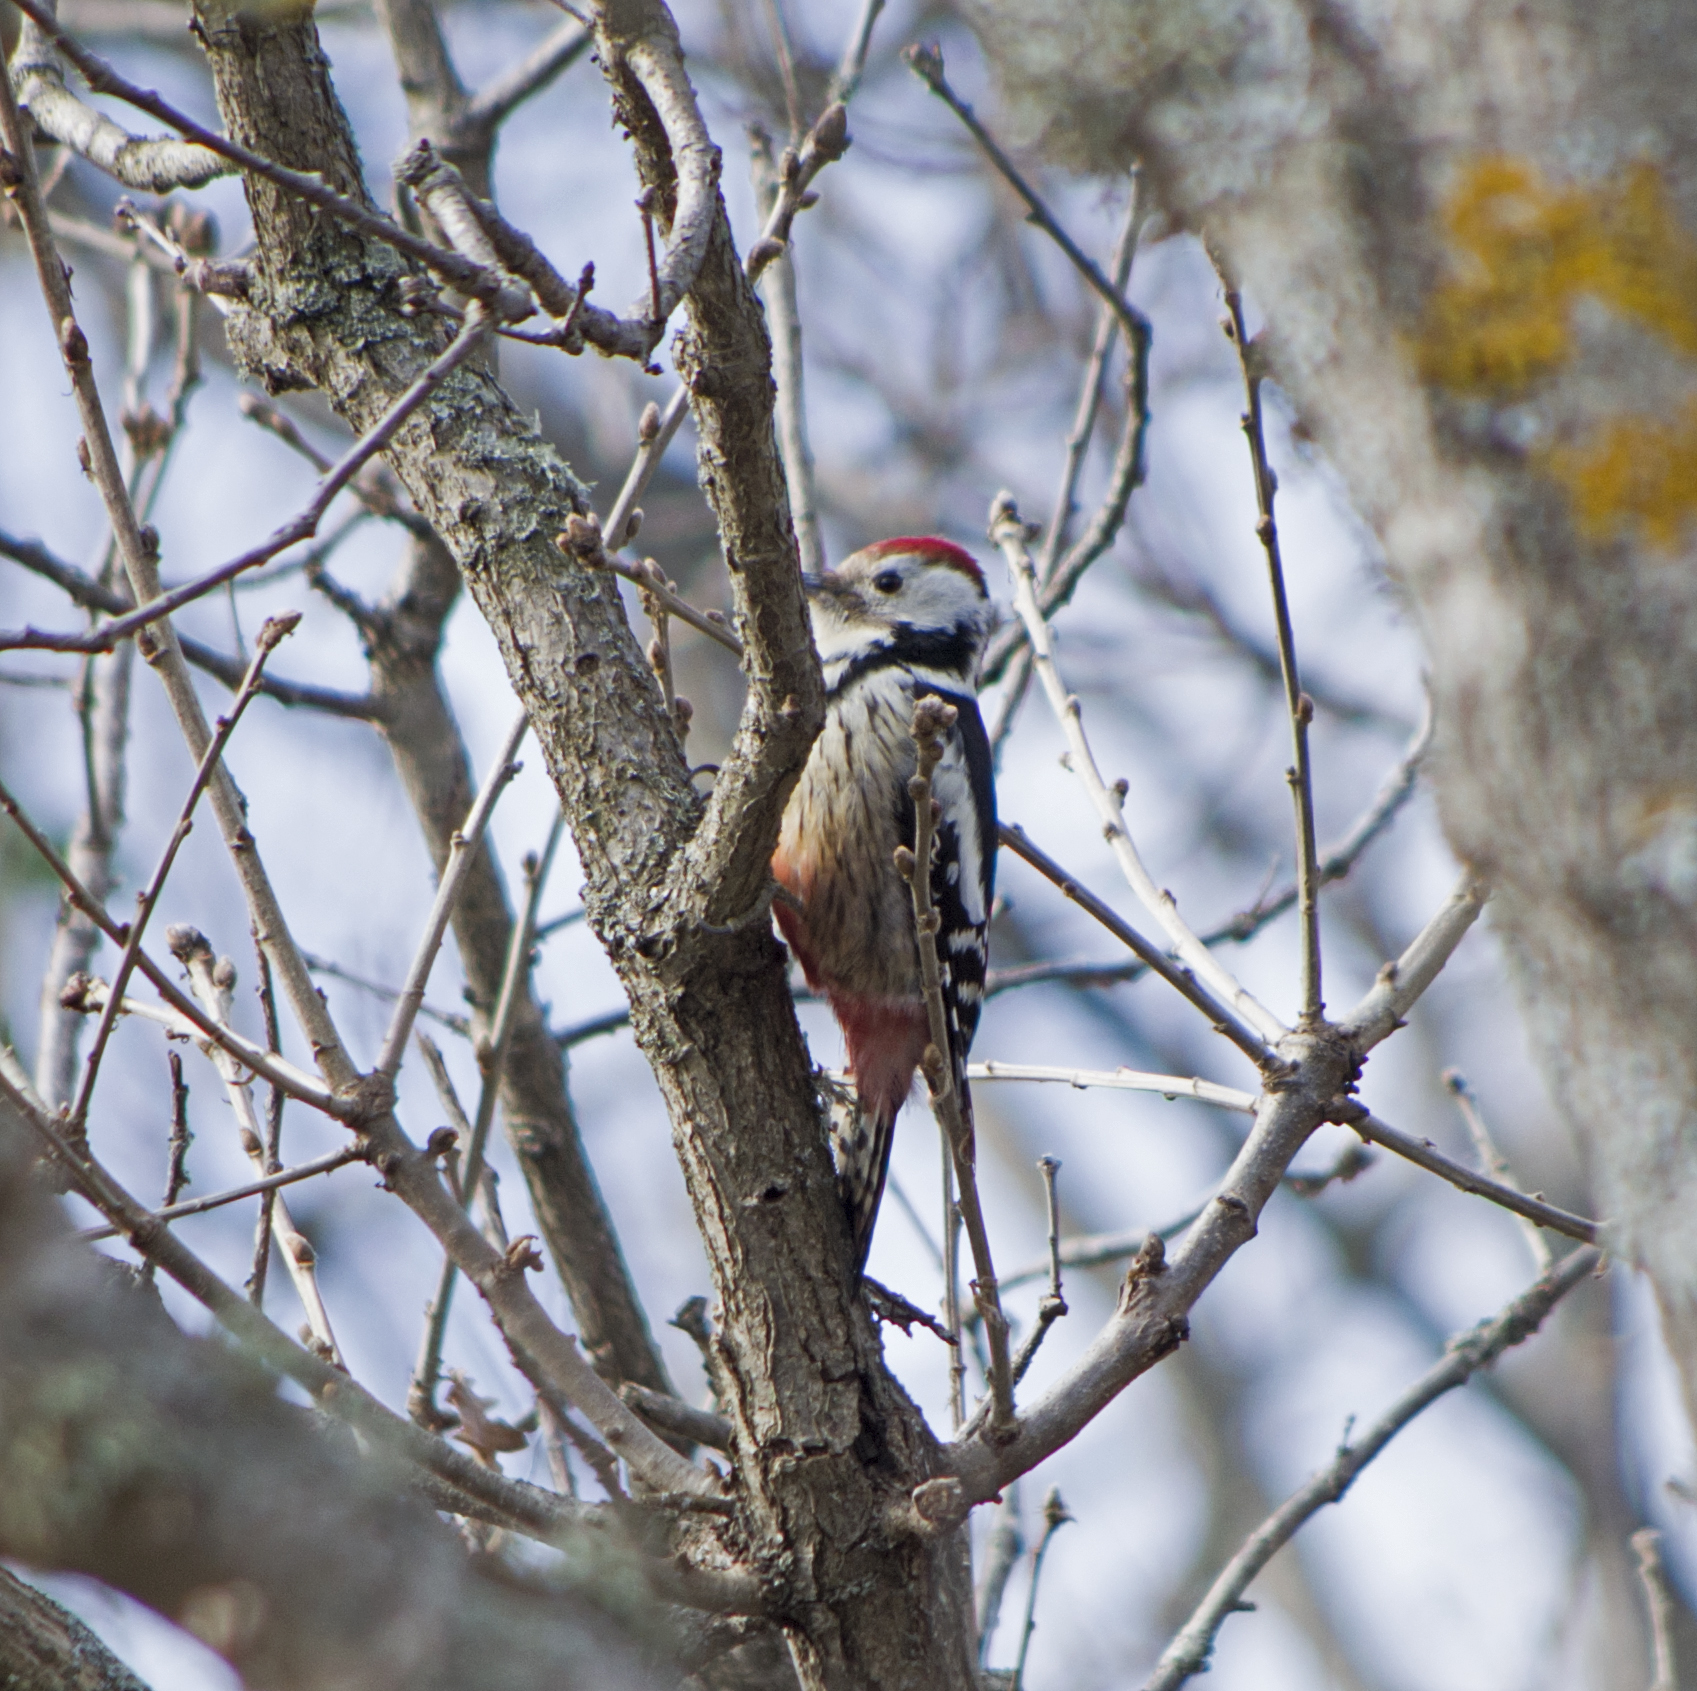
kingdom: Animalia
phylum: Chordata
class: Aves
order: Piciformes
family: Picidae
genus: Dendrocoptes
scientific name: Dendrocoptes medius
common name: Middle spotted woodpecker
